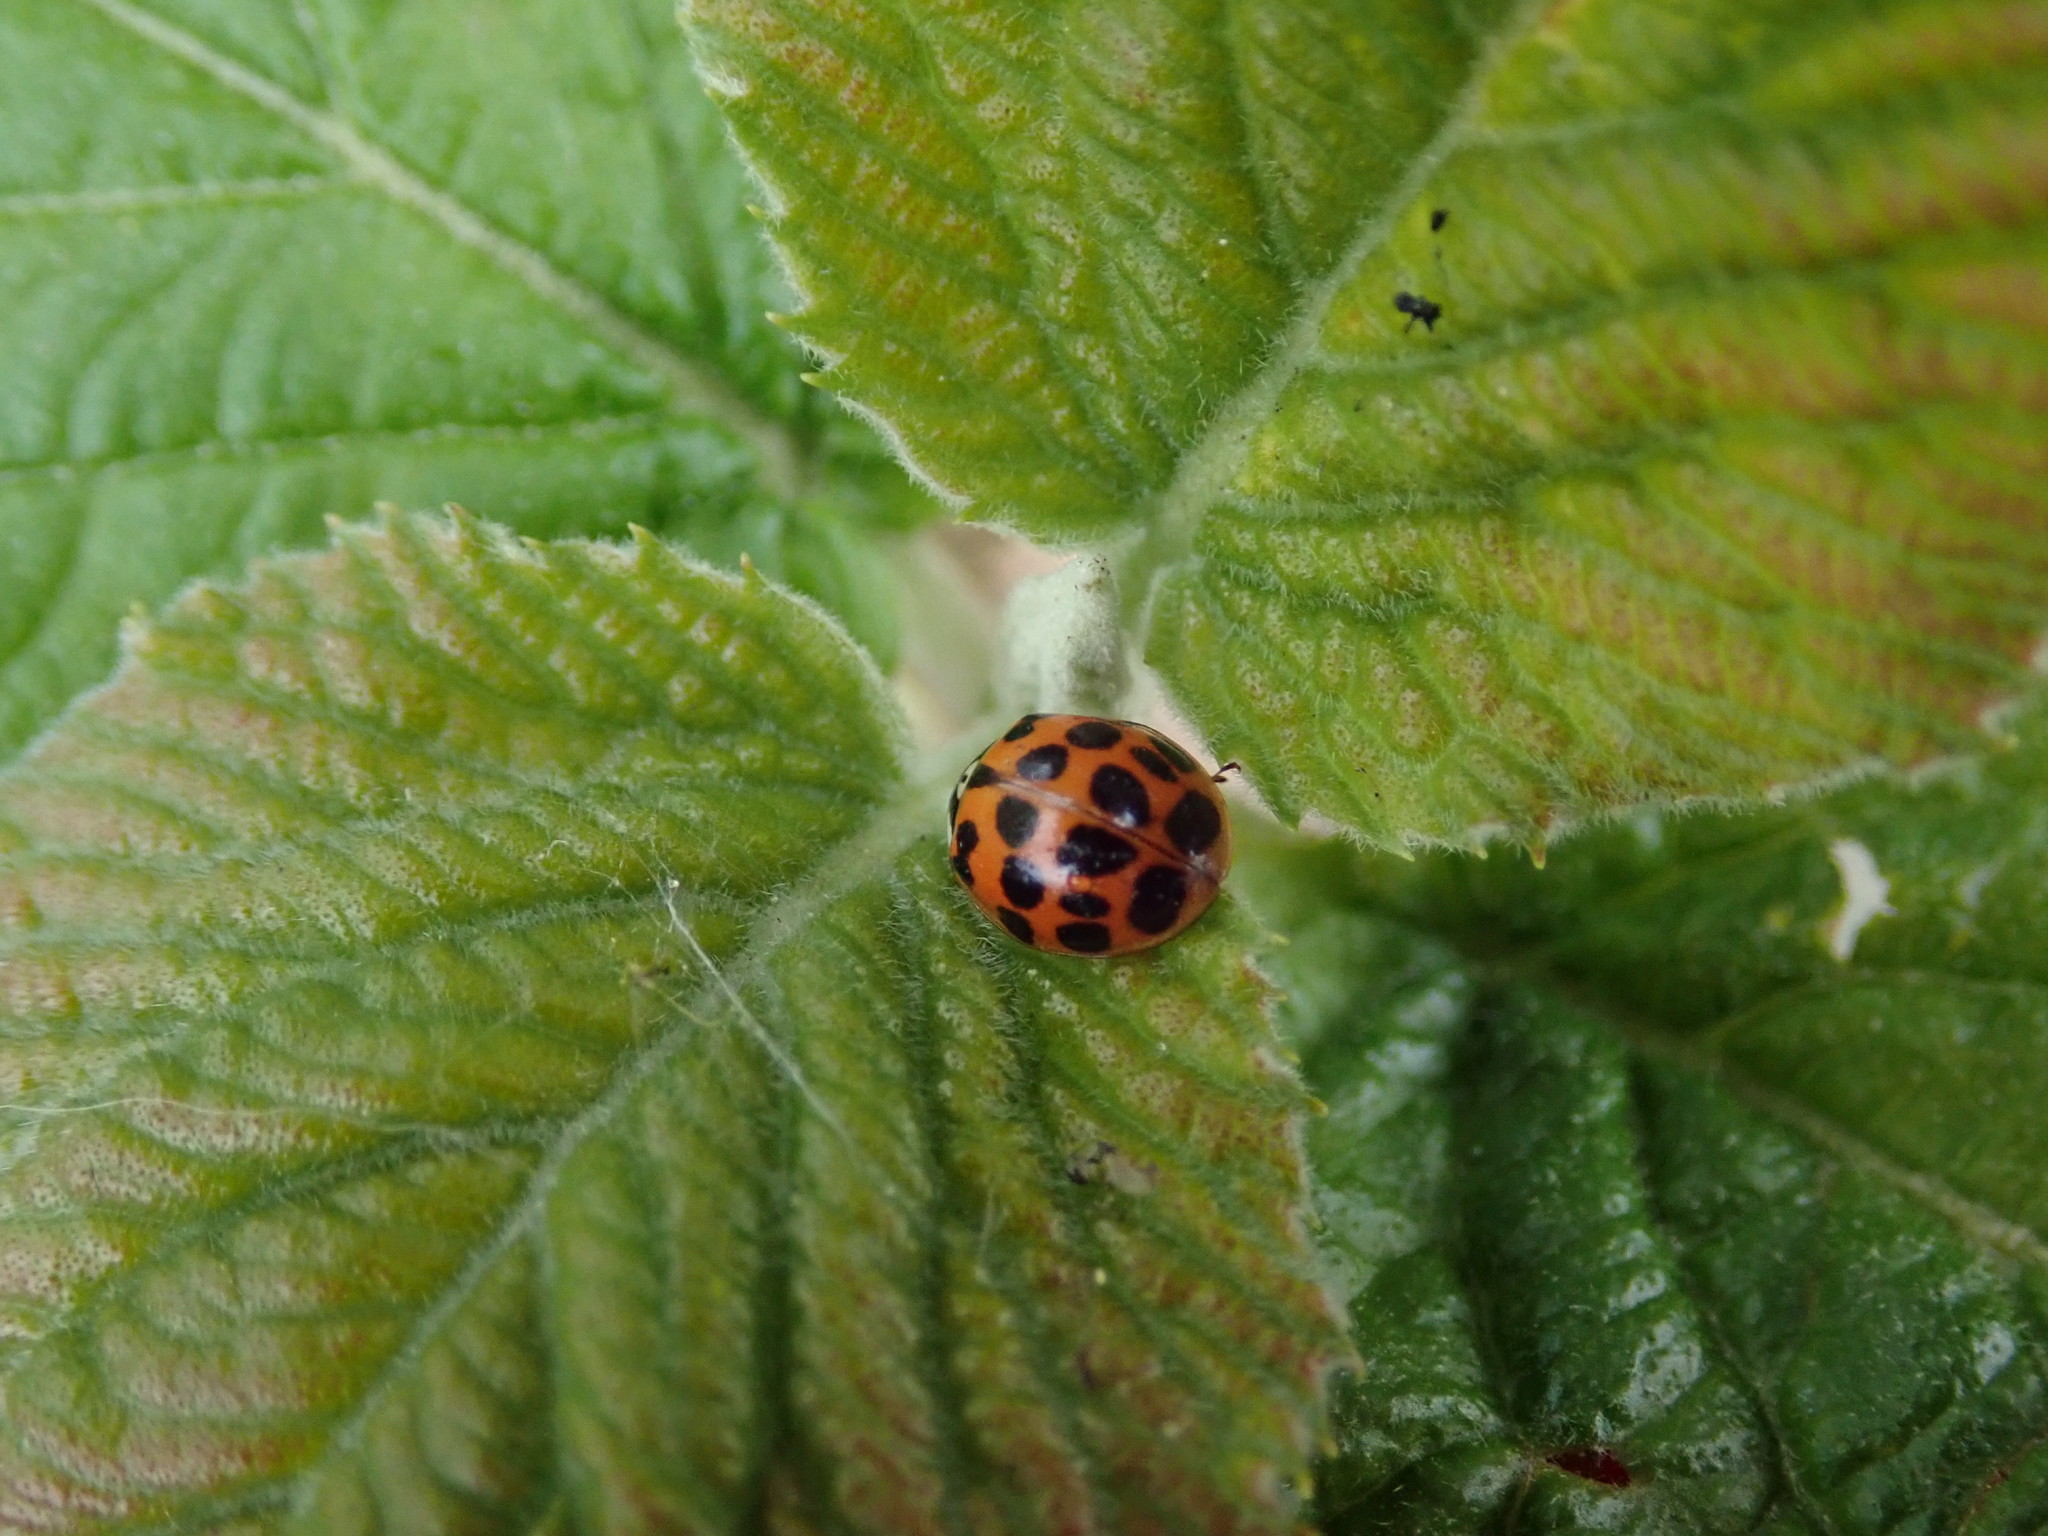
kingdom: Animalia
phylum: Arthropoda
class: Insecta
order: Coleoptera
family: Coccinellidae
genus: Harmonia
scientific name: Harmonia axyridis
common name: Harlequin ladybird
